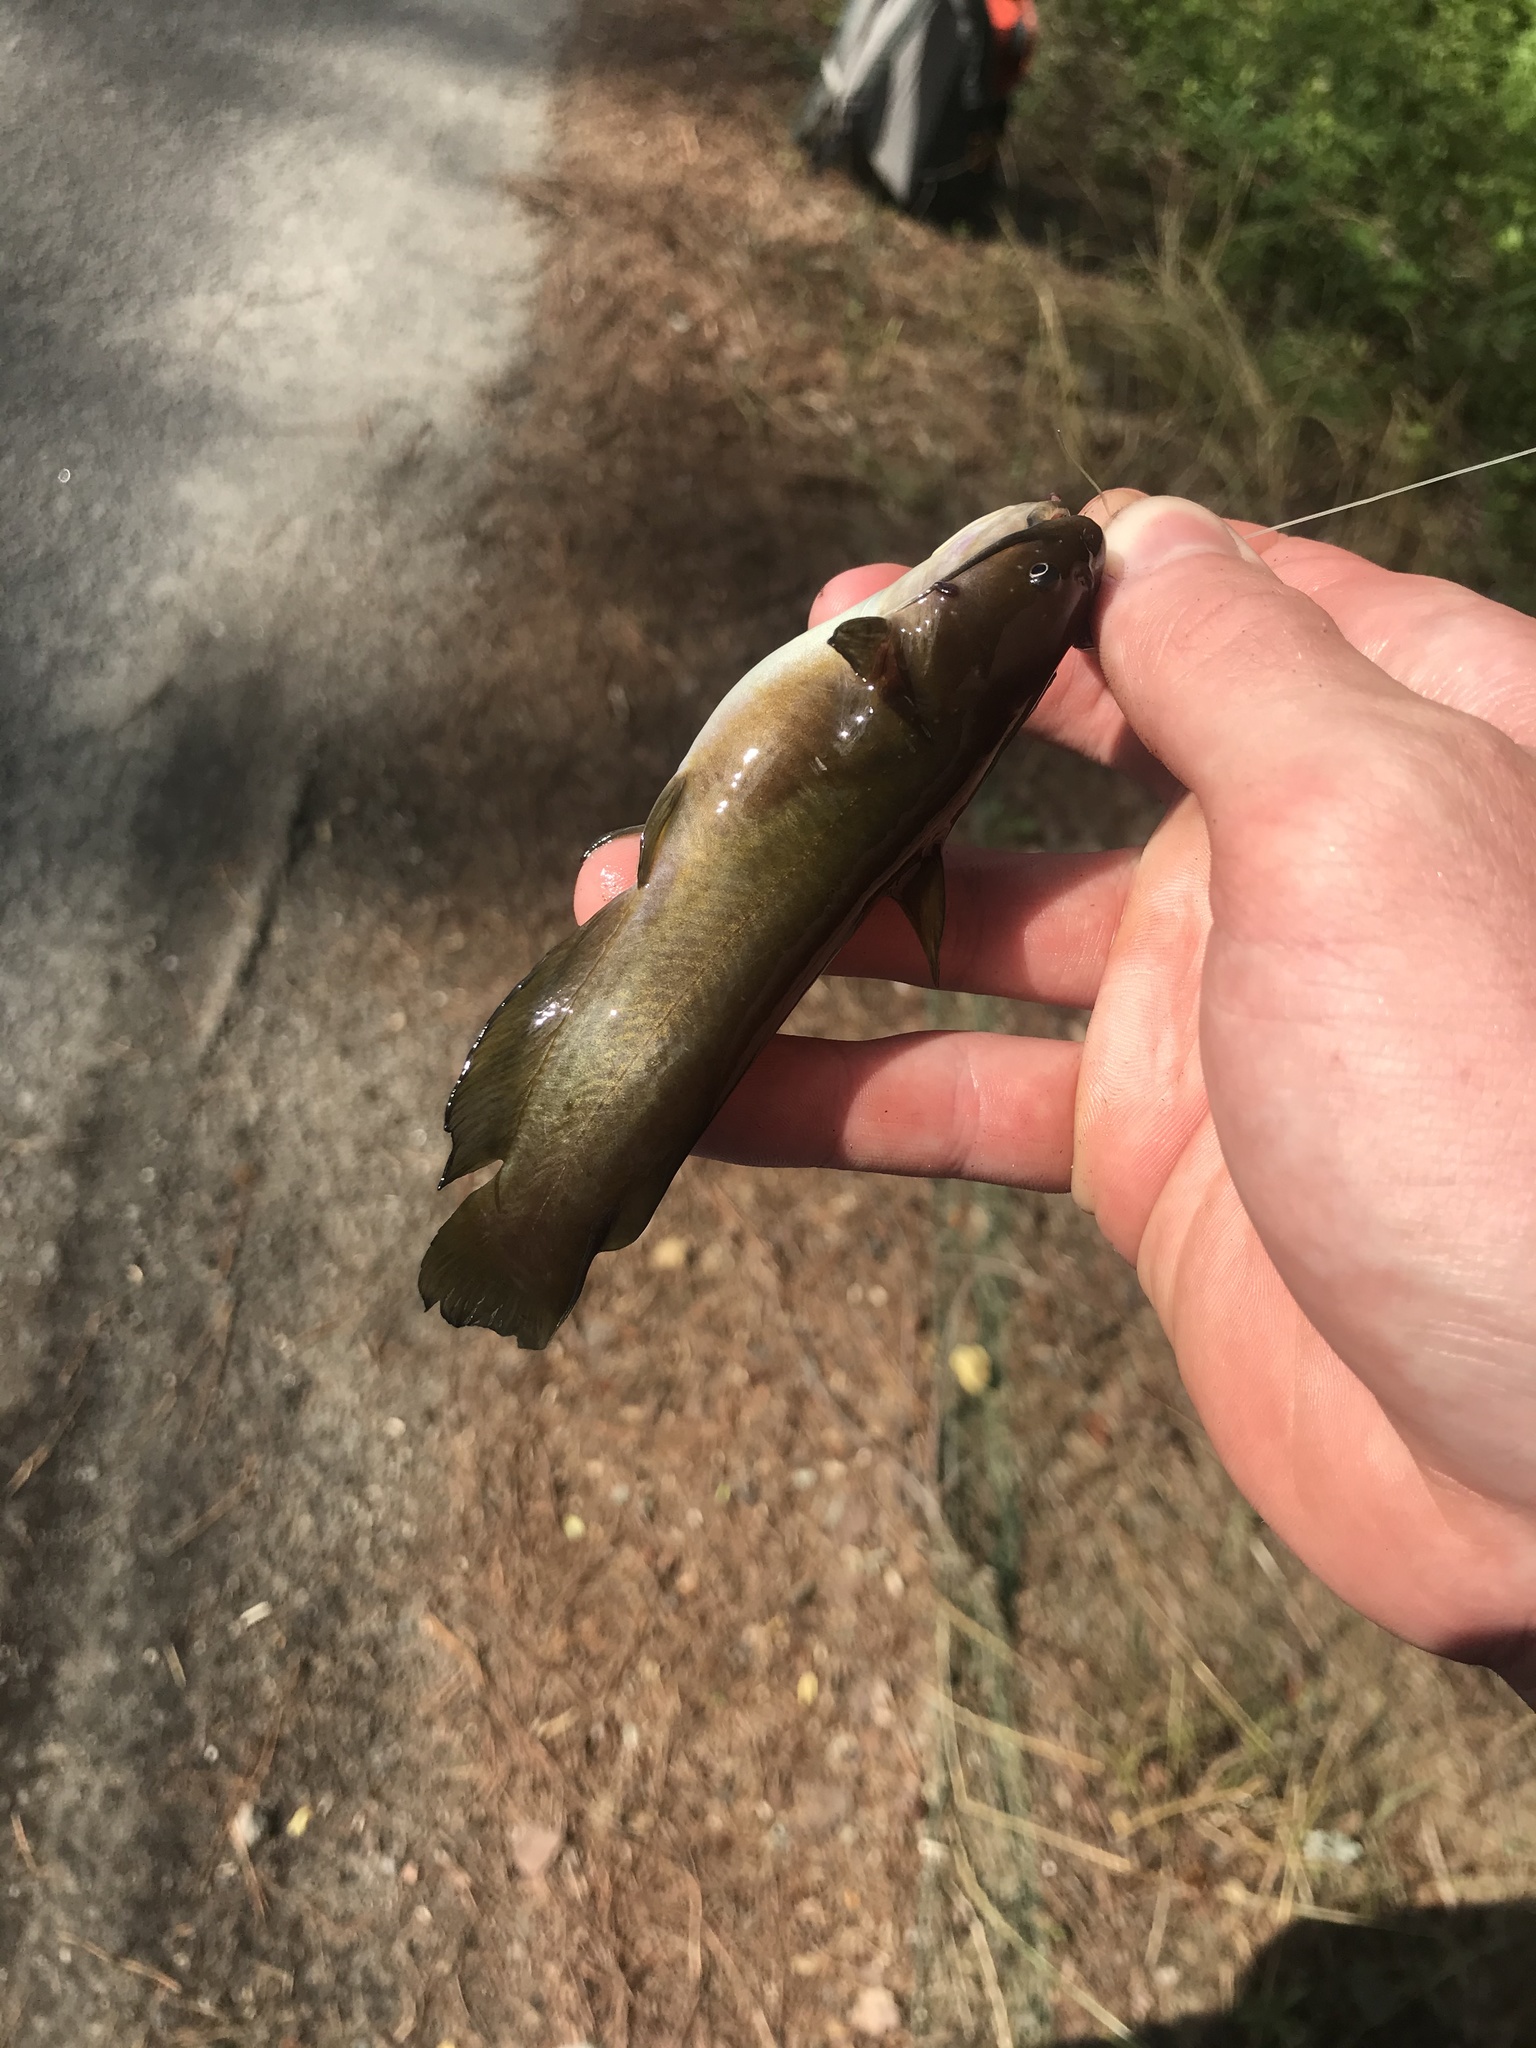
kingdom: Animalia
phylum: Chordata
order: Siluriformes
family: Ictaluridae
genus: Ameiurus
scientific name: Ameiurus nebulosus
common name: Brown bullhead
